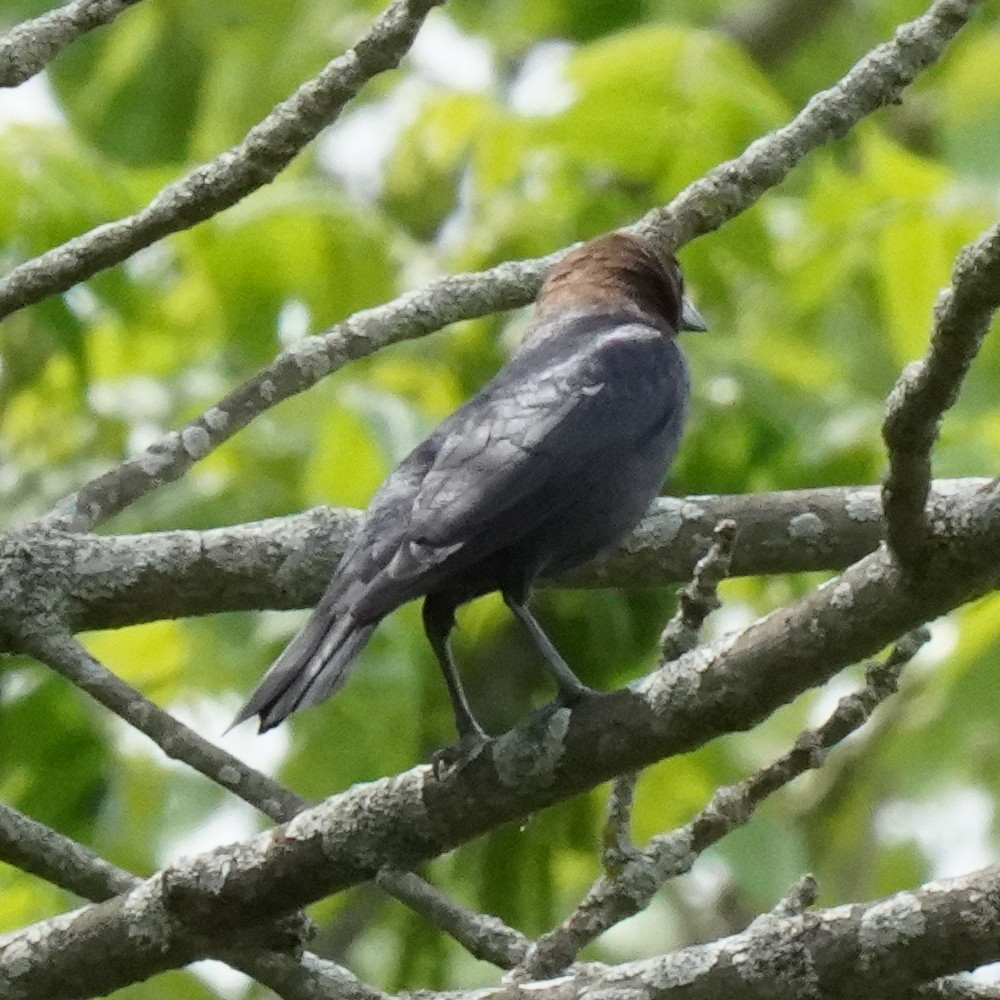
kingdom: Animalia
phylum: Chordata
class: Aves
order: Passeriformes
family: Icteridae
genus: Molothrus
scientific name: Molothrus ater
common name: Brown-headed cowbird
